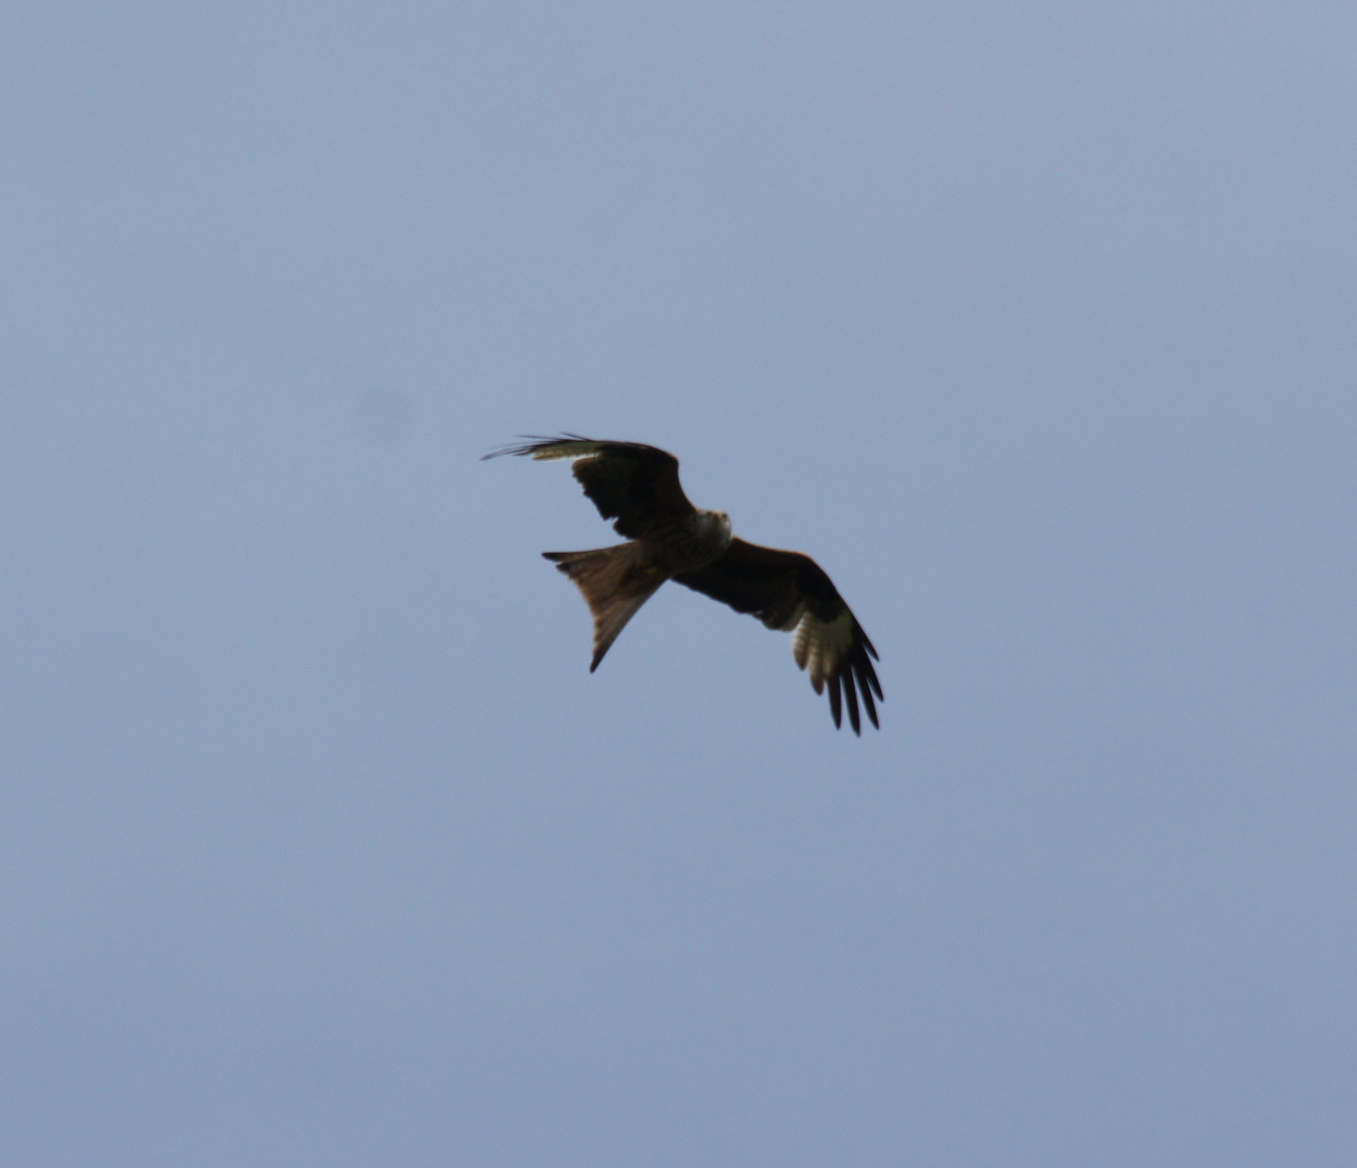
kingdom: Animalia
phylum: Chordata
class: Aves
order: Accipitriformes
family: Accipitridae
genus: Milvus
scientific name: Milvus milvus
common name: Red kite
